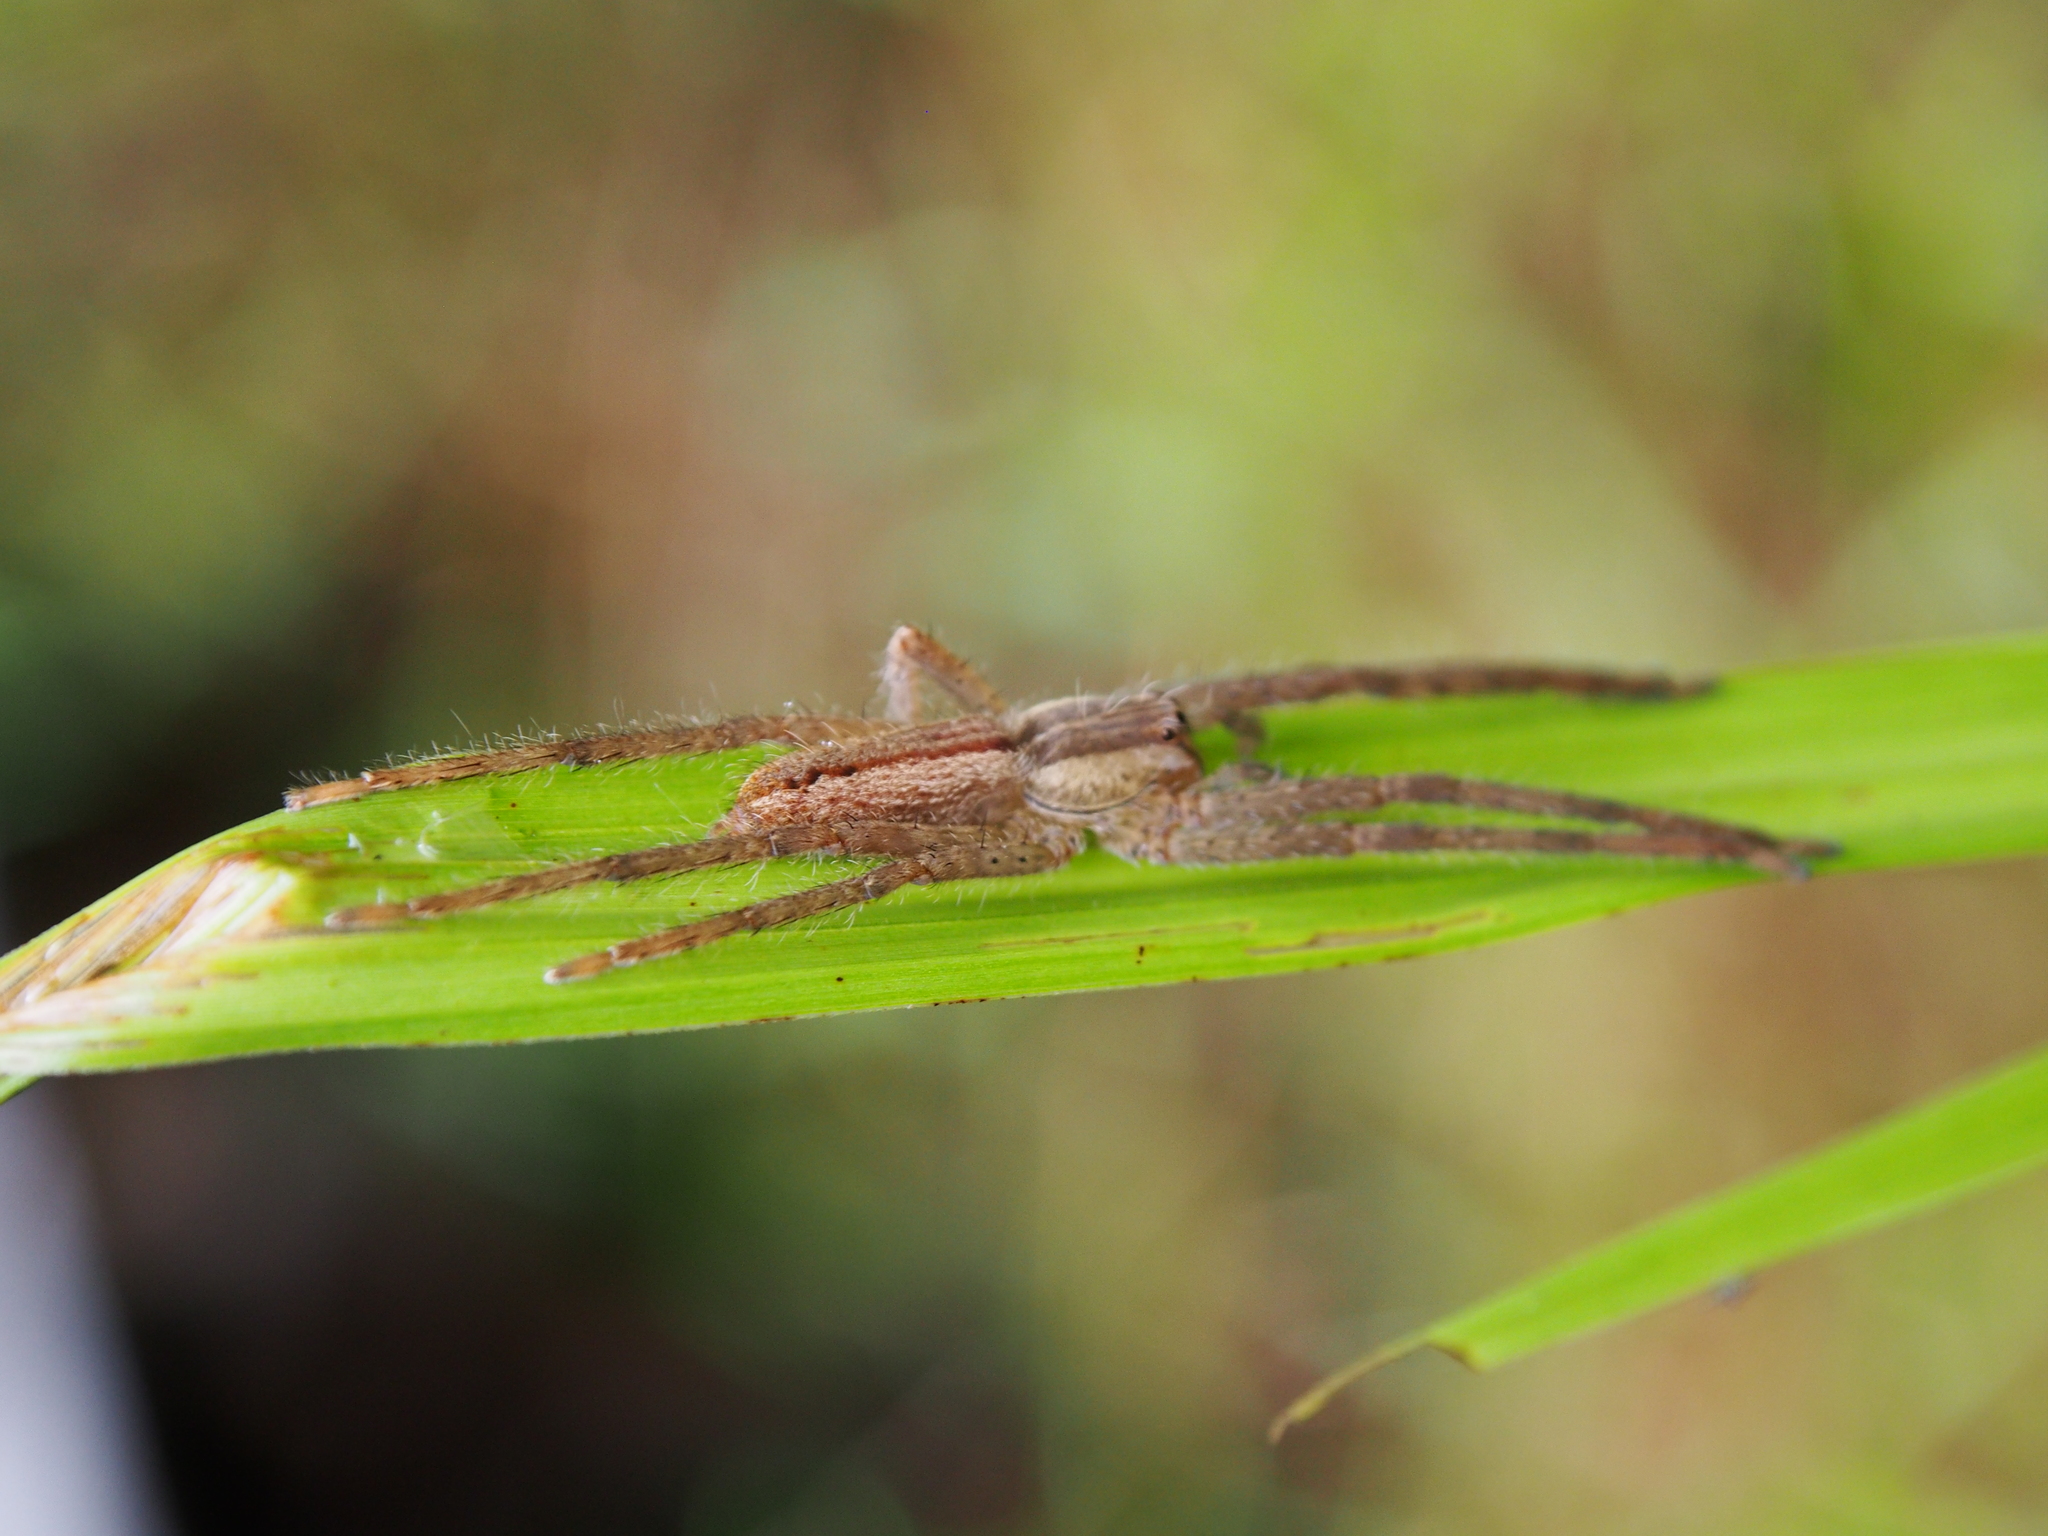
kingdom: Animalia
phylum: Arthropoda
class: Arachnida
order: Araneae
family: Trechaleidae
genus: Cupiennius
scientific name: Cupiennius getazi
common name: Wandering spiders
